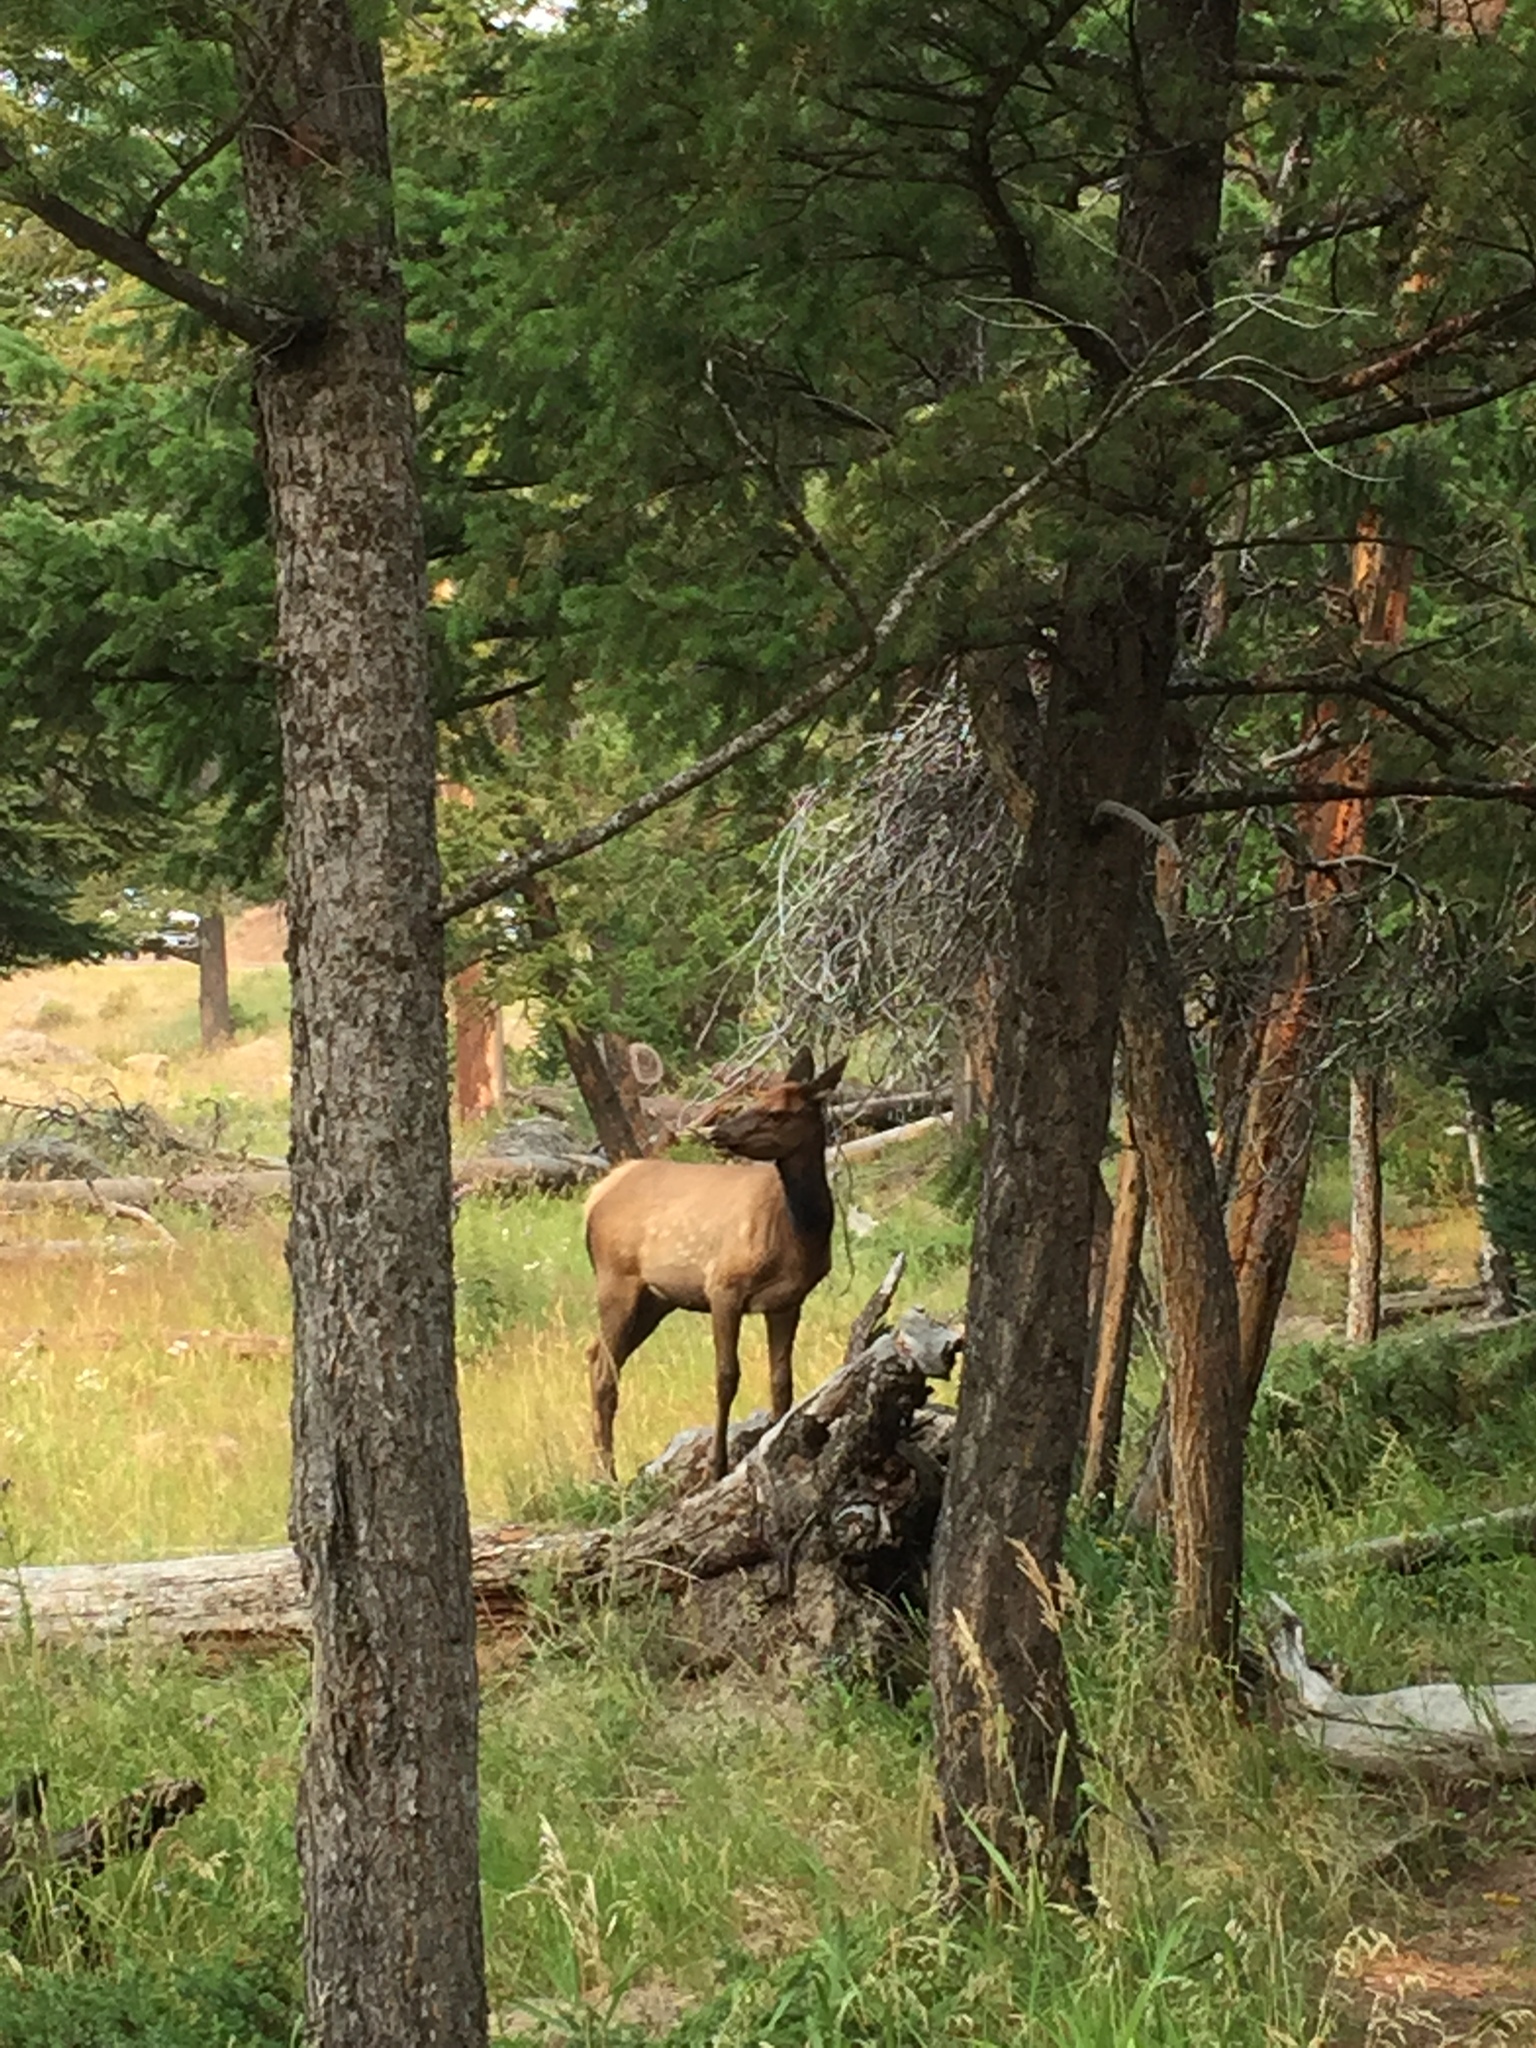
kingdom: Animalia
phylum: Chordata
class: Mammalia
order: Artiodactyla
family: Cervidae
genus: Cervus
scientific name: Cervus elaphus
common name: Red deer
